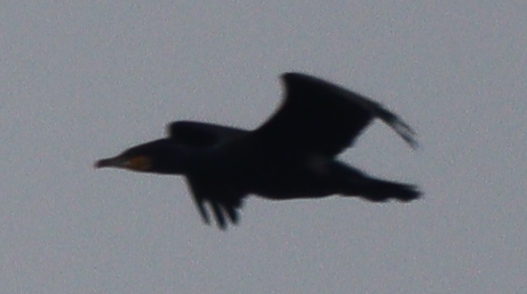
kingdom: Animalia
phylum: Chordata
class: Aves
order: Suliformes
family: Phalacrocoracidae
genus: Phalacrocorax
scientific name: Phalacrocorax carbo
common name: Great cormorant
